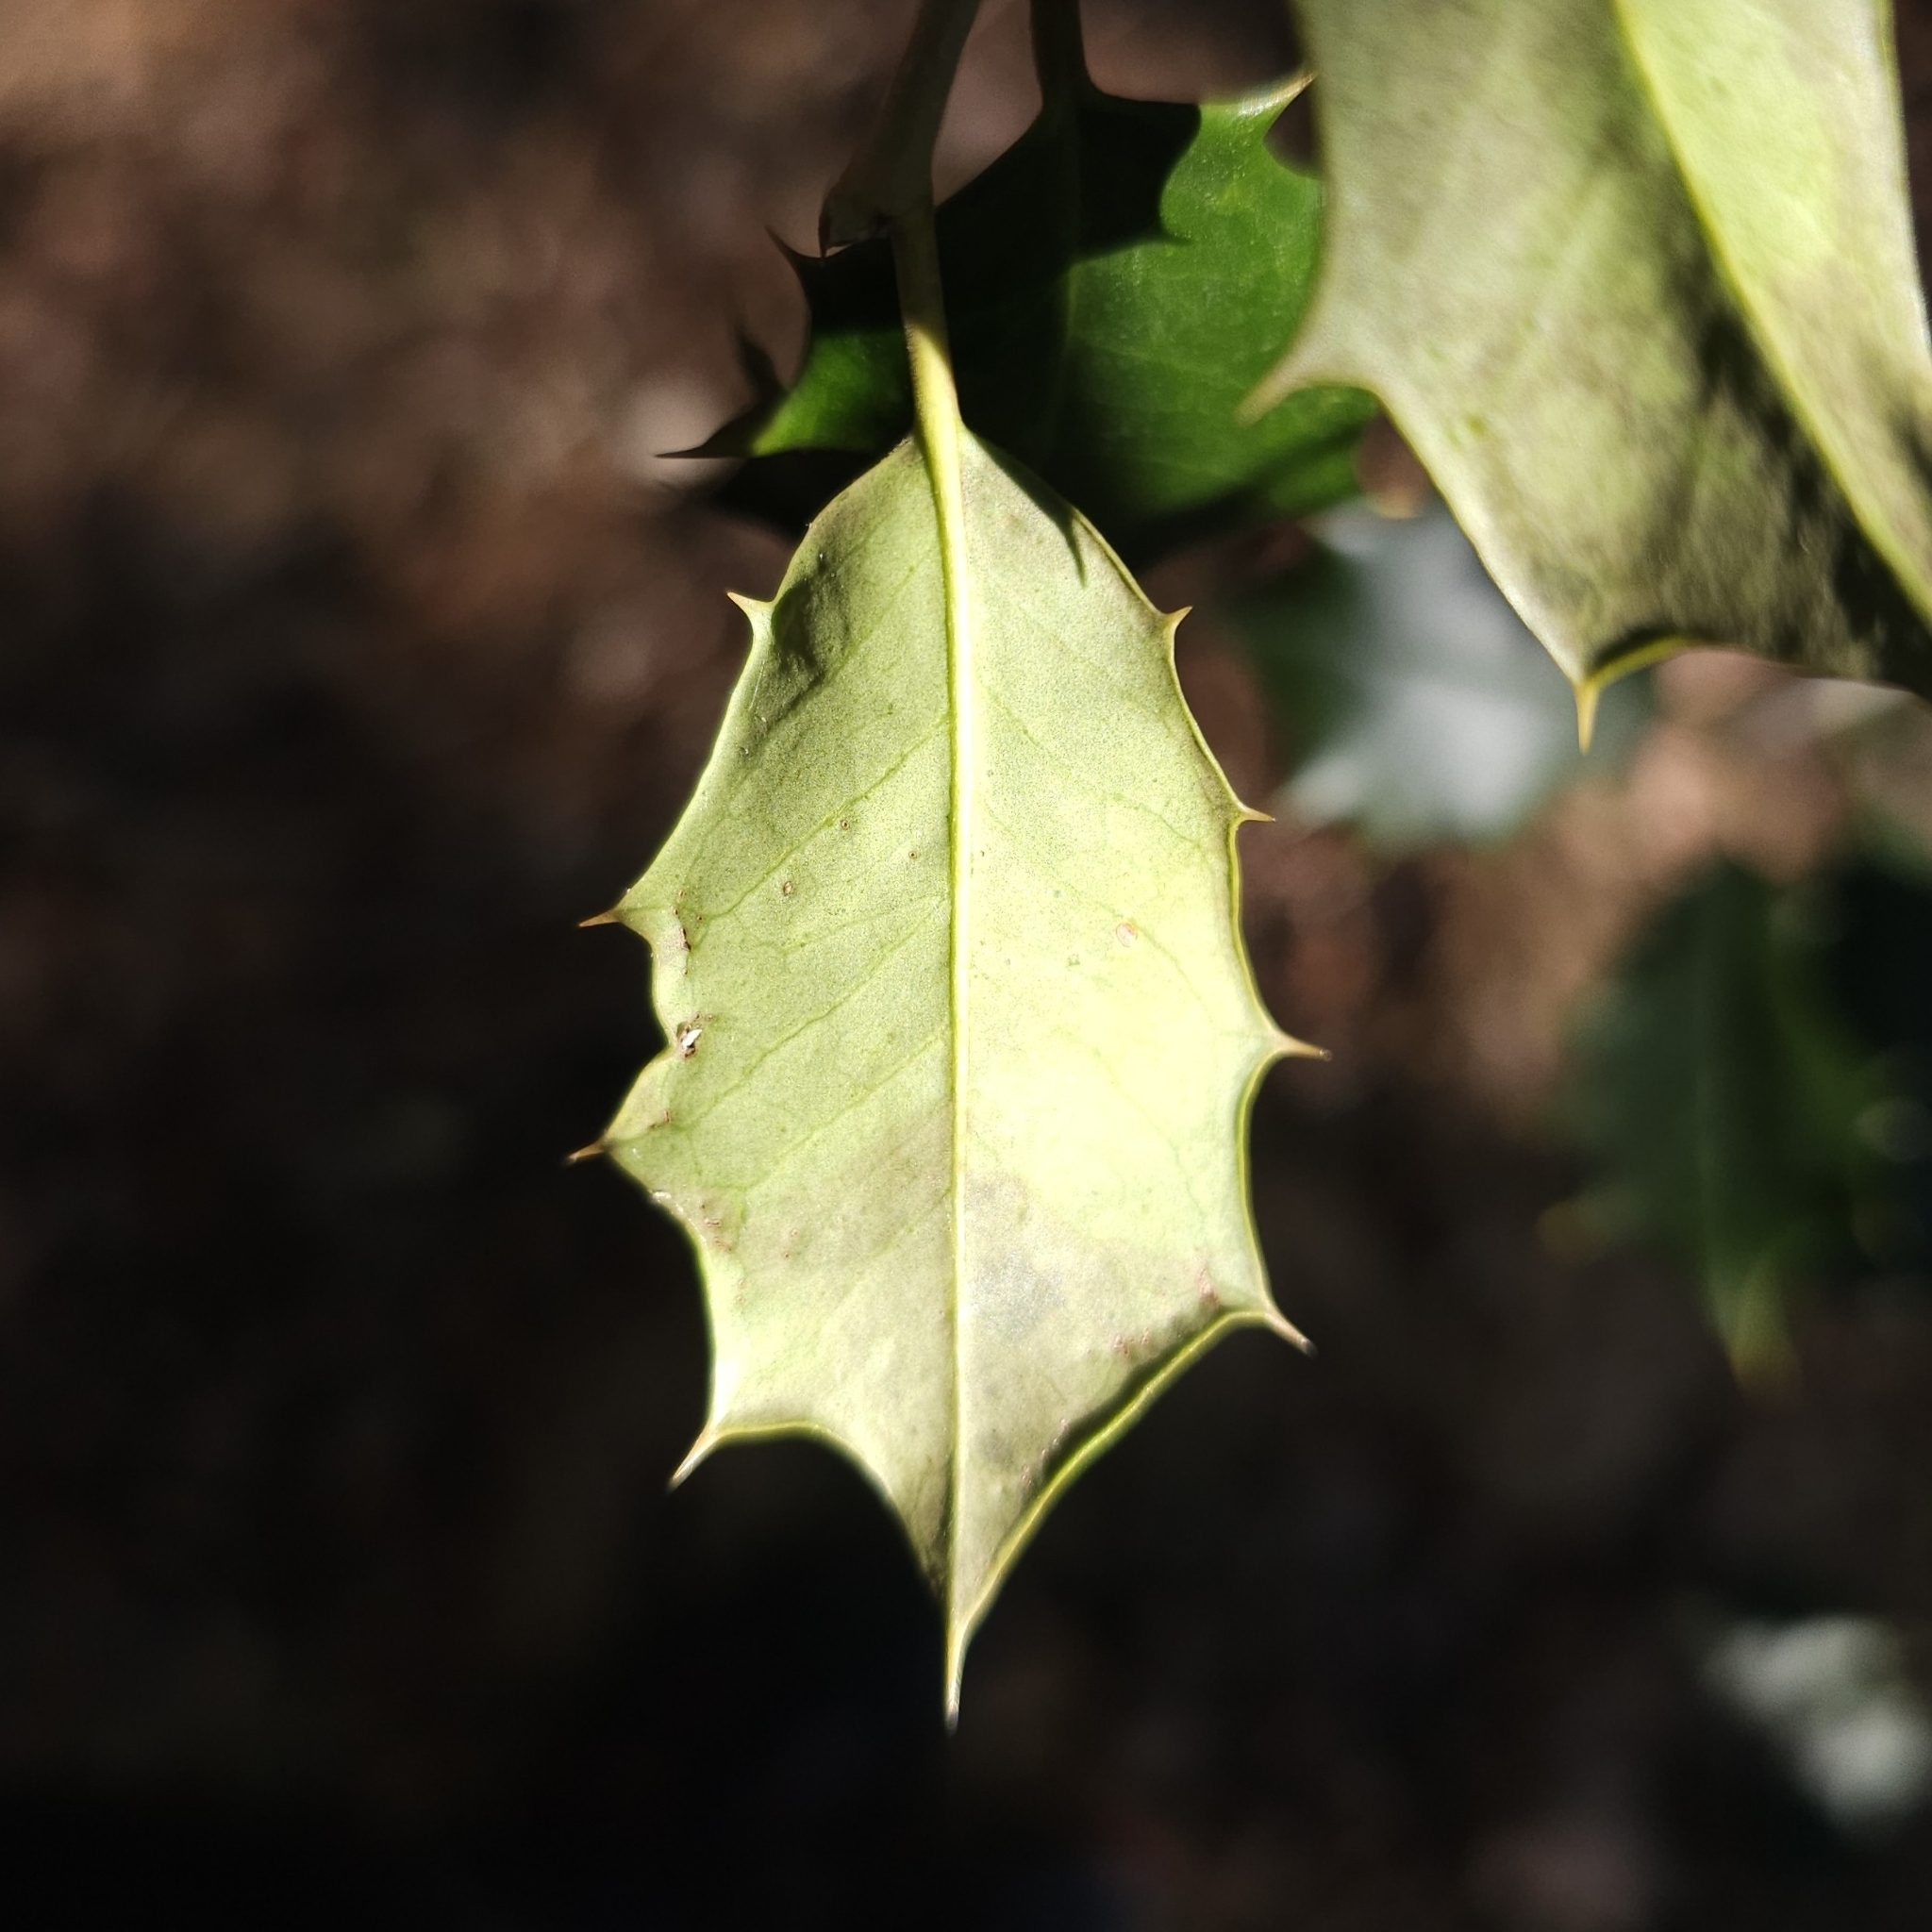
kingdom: Animalia
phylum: Arthropoda
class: Insecta
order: Diptera
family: Agromyzidae
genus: Phytomyza
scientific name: Phytomyza opacae
